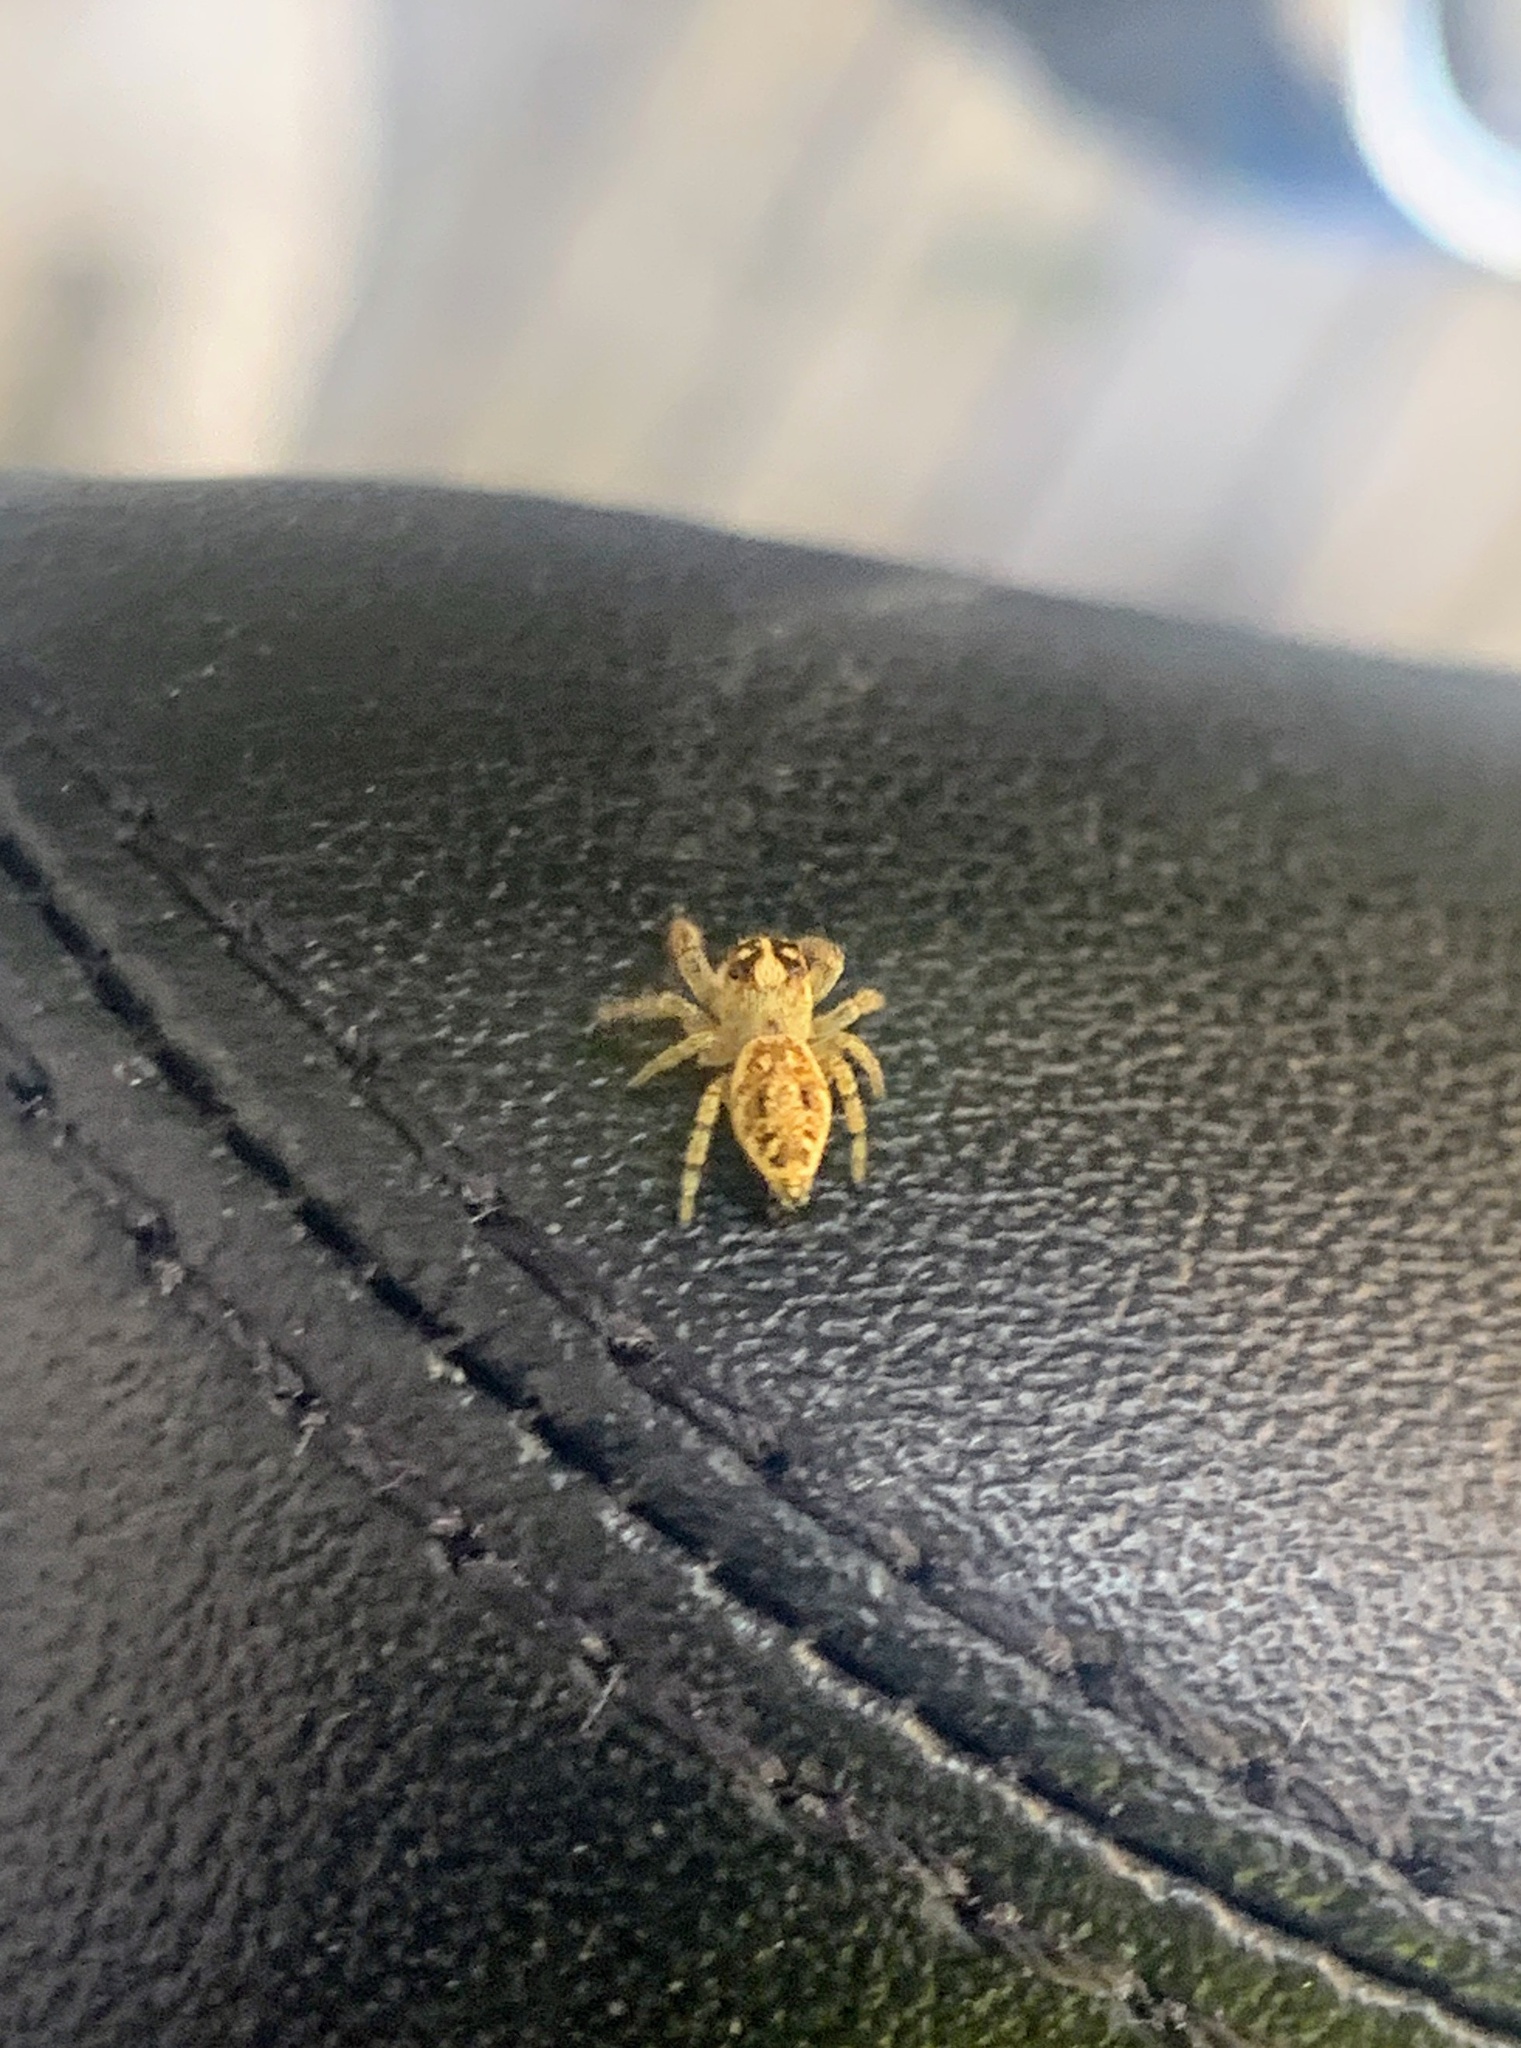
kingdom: Animalia
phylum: Arthropoda
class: Arachnida
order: Araneae
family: Salticidae
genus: Macaroeris
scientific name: Macaroeris nidicolens
